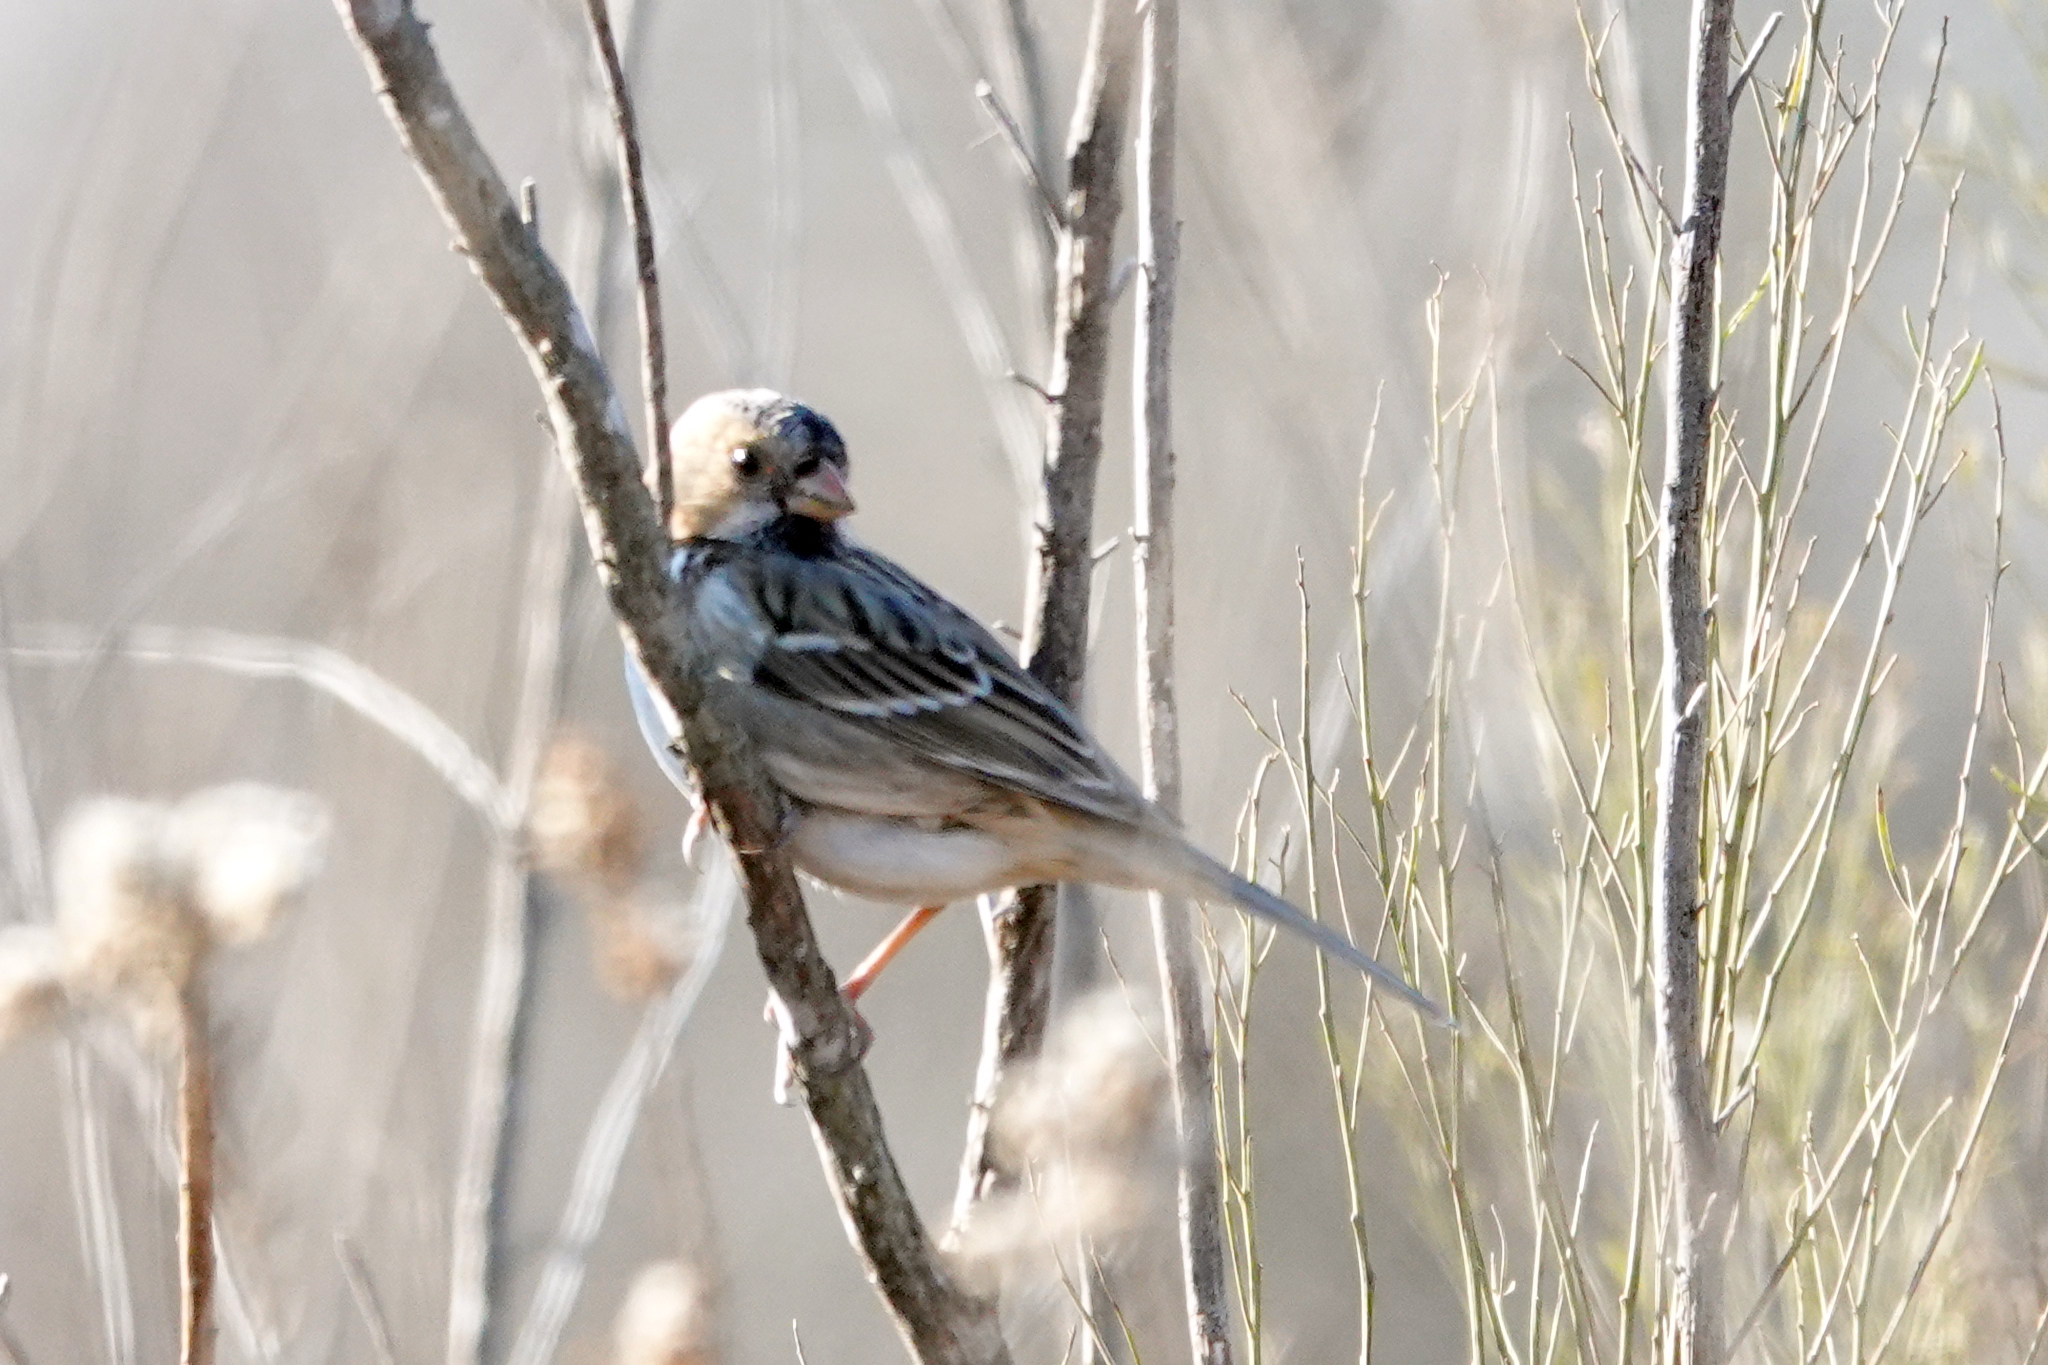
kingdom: Animalia
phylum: Chordata
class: Aves
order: Passeriformes
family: Passerellidae
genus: Zonotrichia
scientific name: Zonotrichia querula
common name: Harris's sparrow
